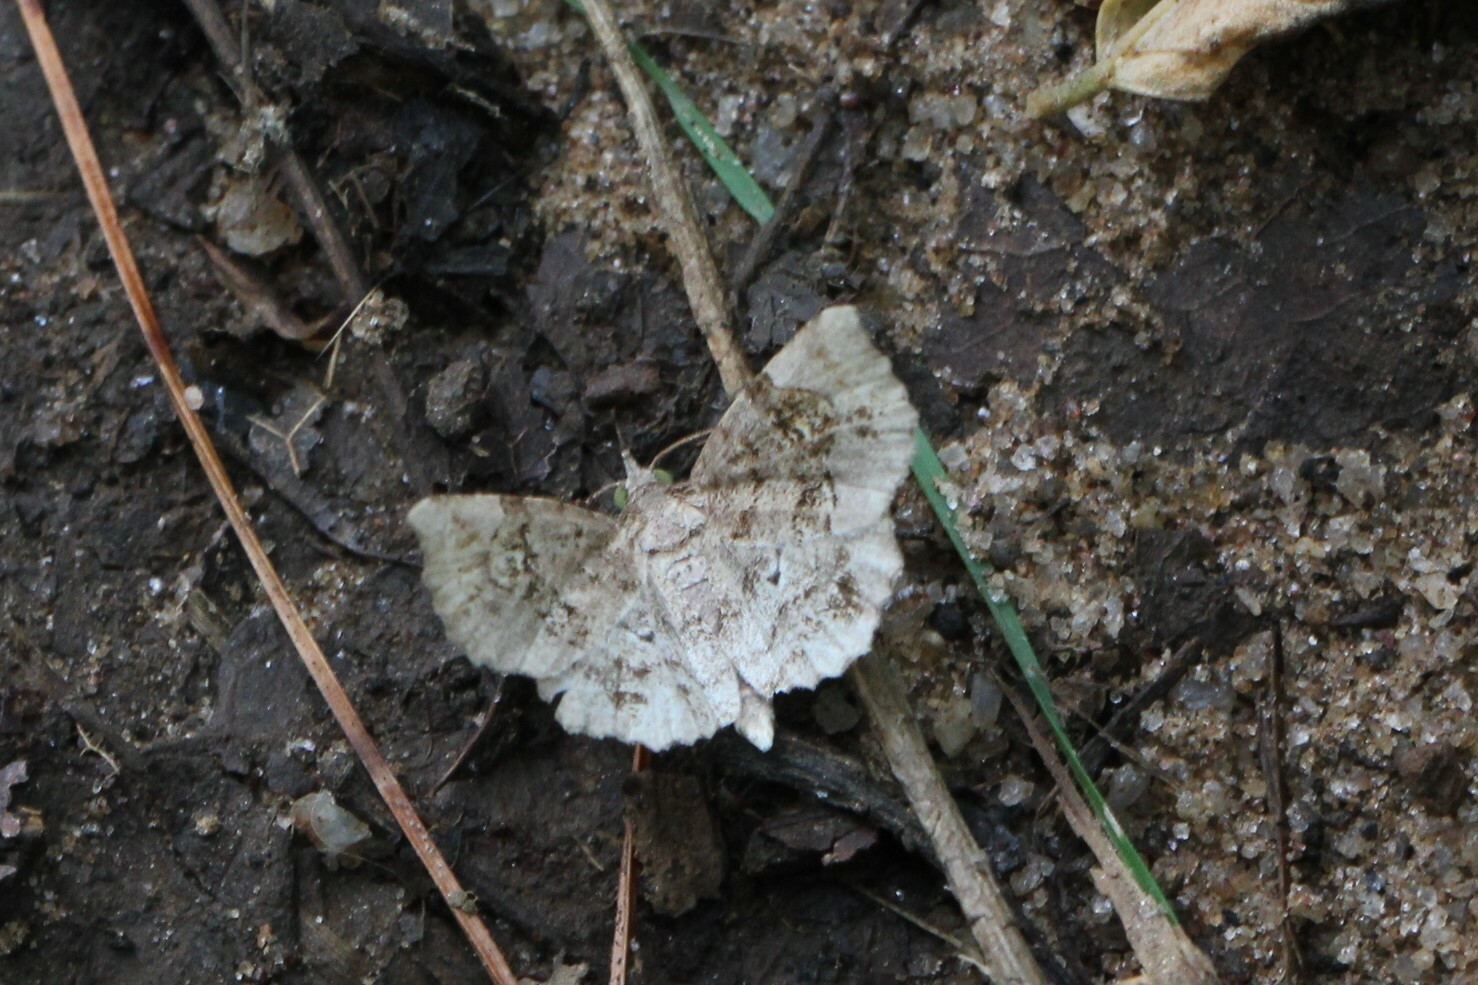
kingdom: Animalia
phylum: Arthropoda
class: Insecta
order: Lepidoptera
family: Erebidae
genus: Pangrapta
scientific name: Pangrapta decoralis
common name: Decorated owlet
